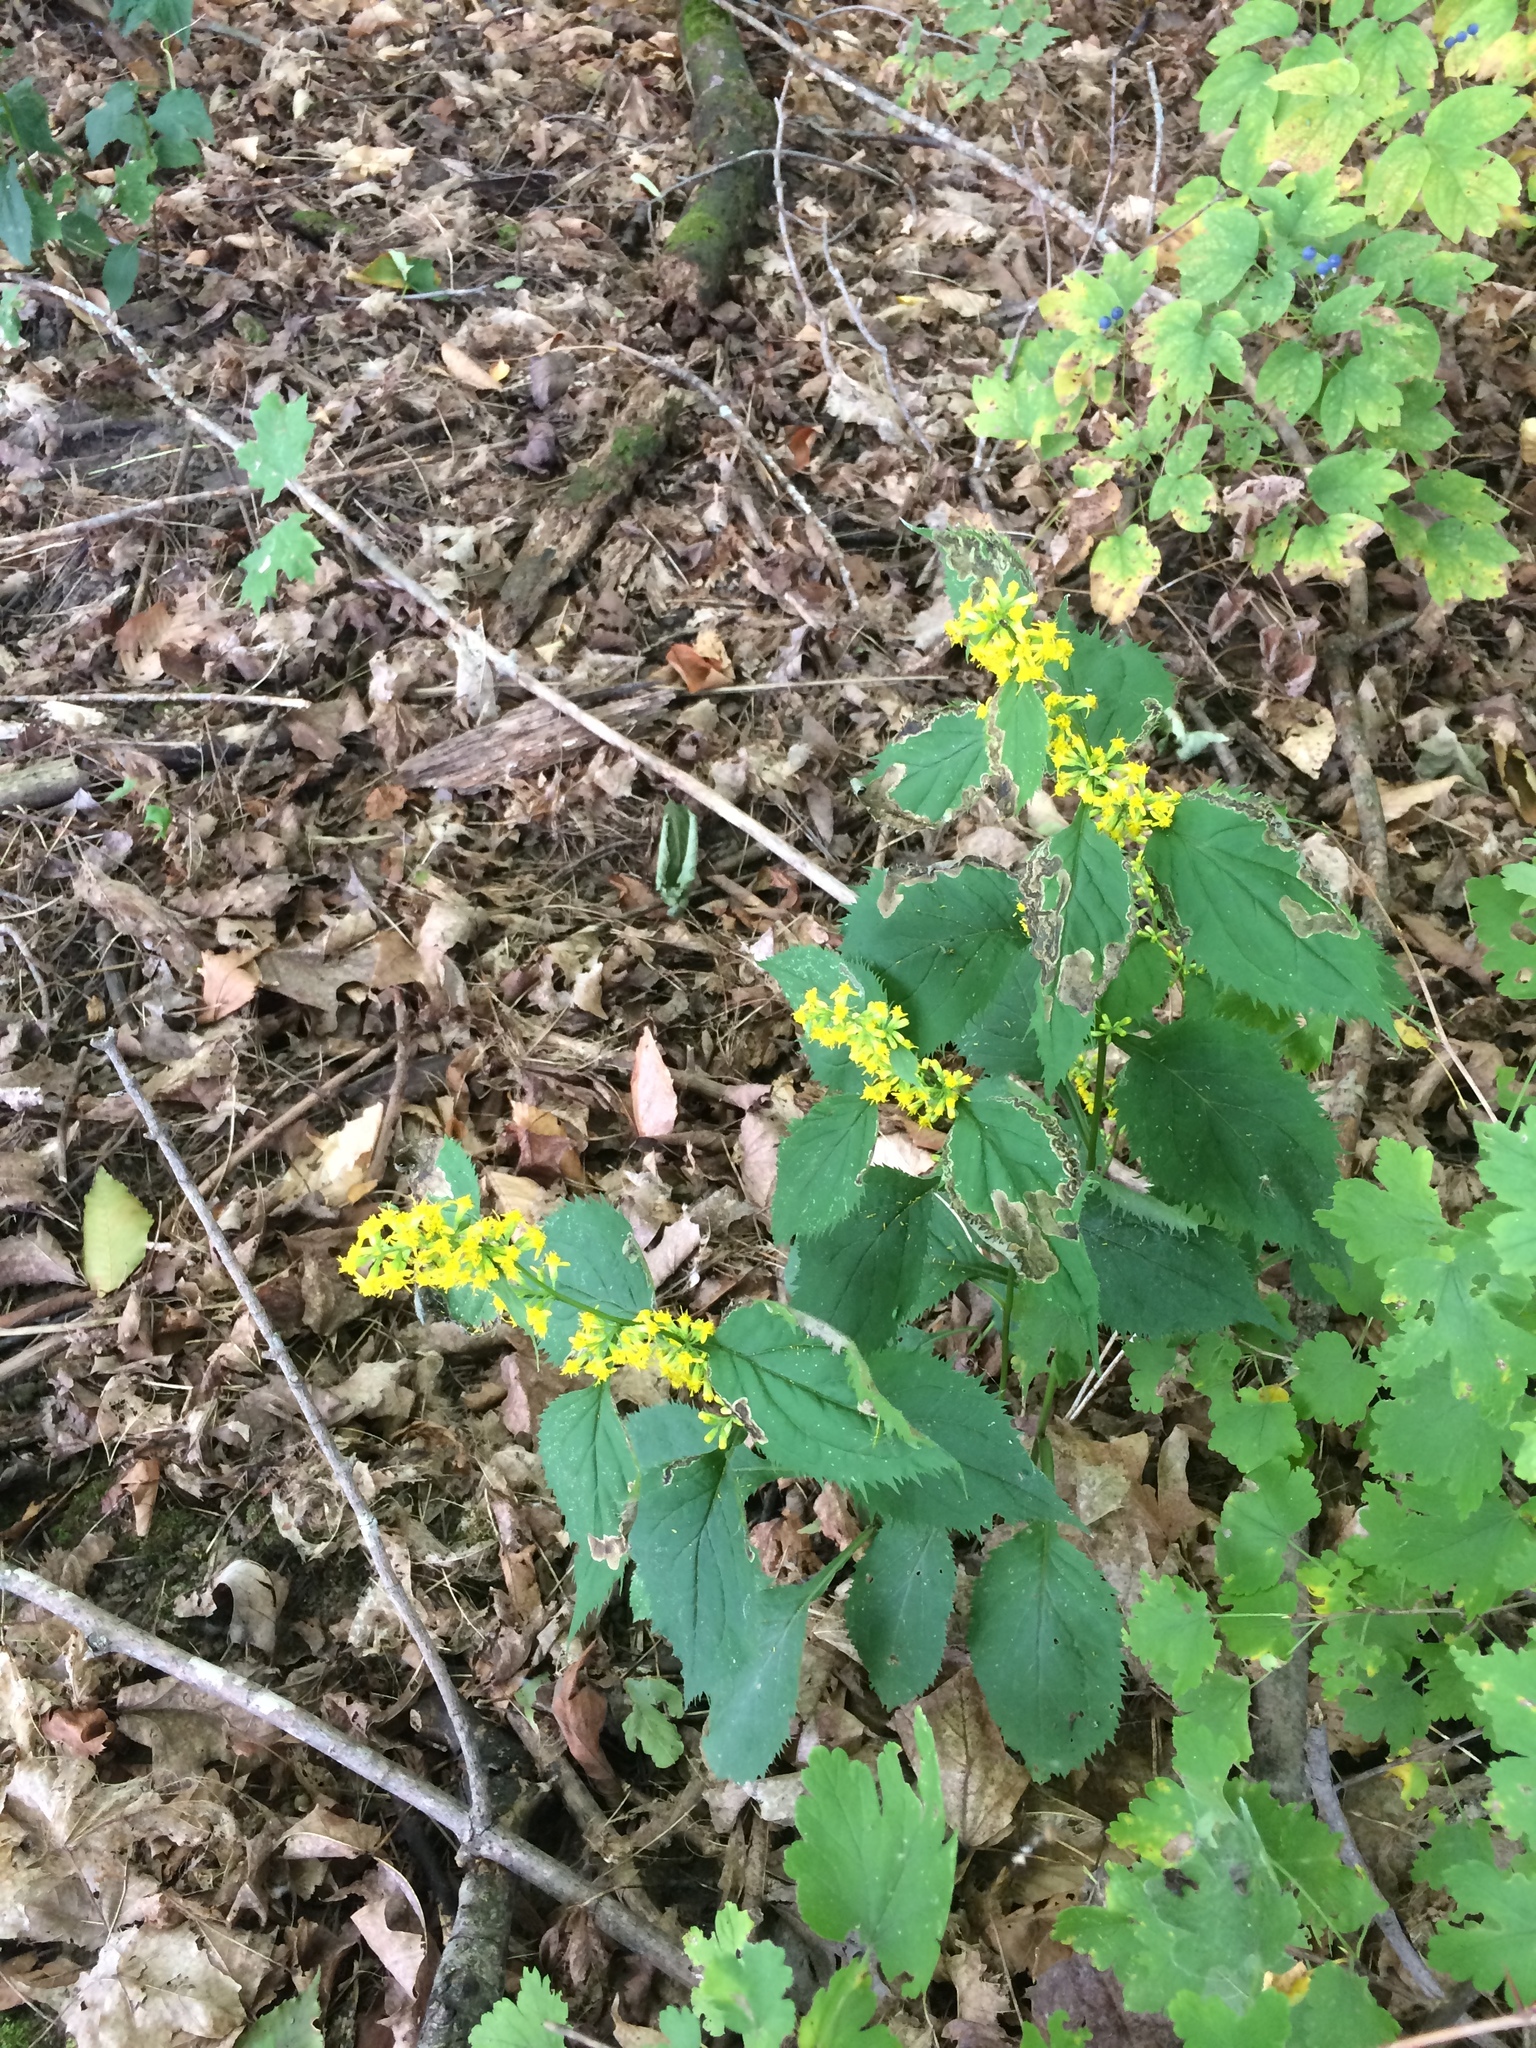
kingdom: Plantae
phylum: Tracheophyta
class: Magnoliopsida
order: Asterales
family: Asteraceae
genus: Solidago
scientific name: Solidago flexicaulis
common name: Zig-zag goldenrod
